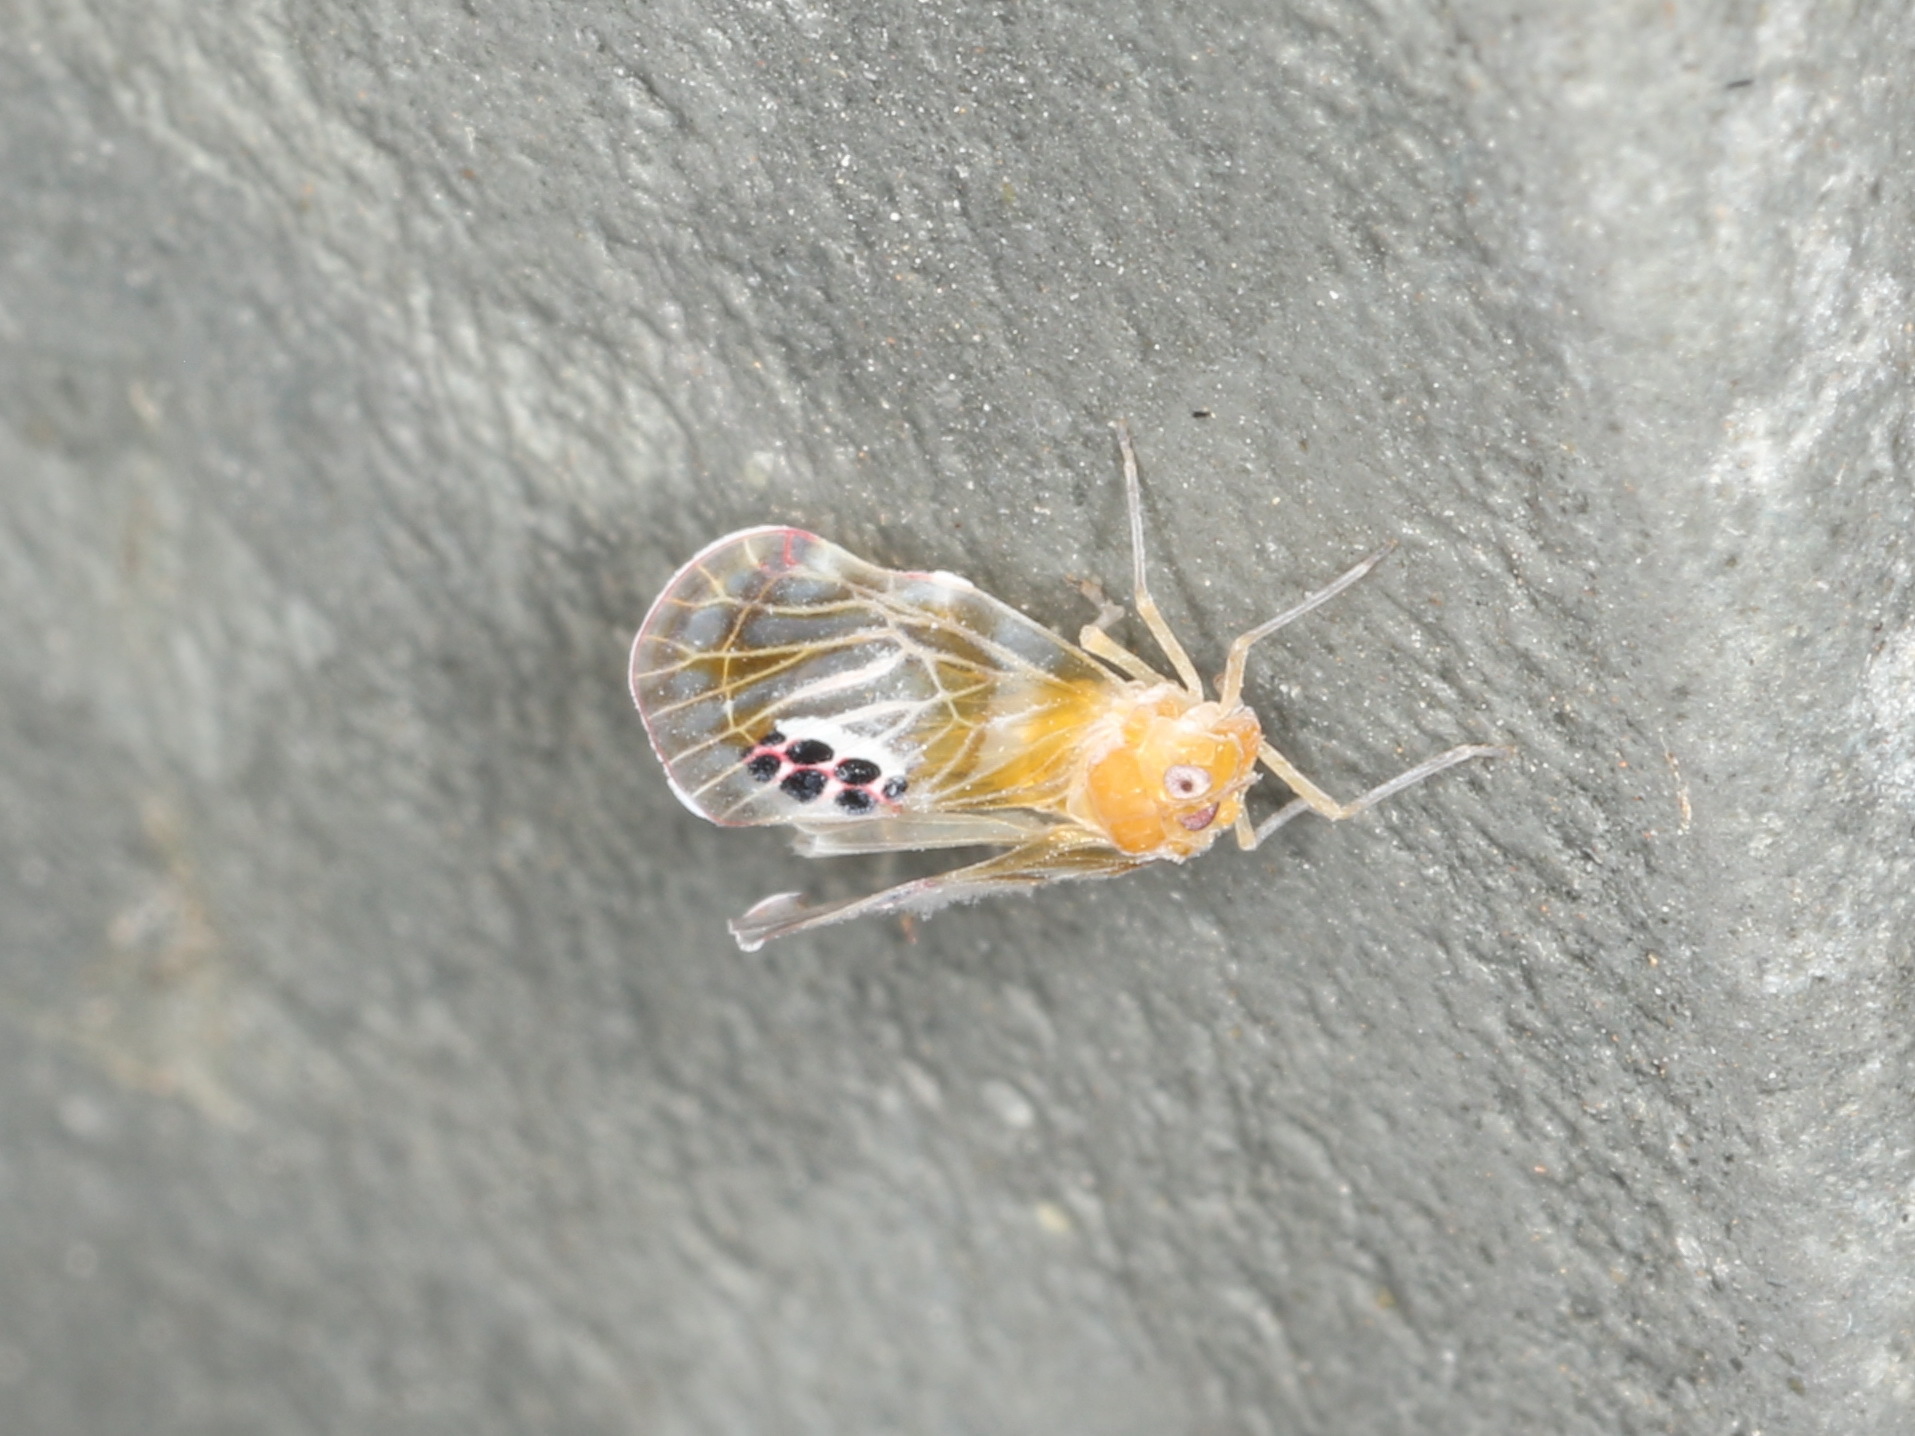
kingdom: Animalia
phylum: Arthropoda
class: Insecta
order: Hemiptera
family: Derbidae
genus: Rhotana
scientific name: Rhotana septemmaculata
